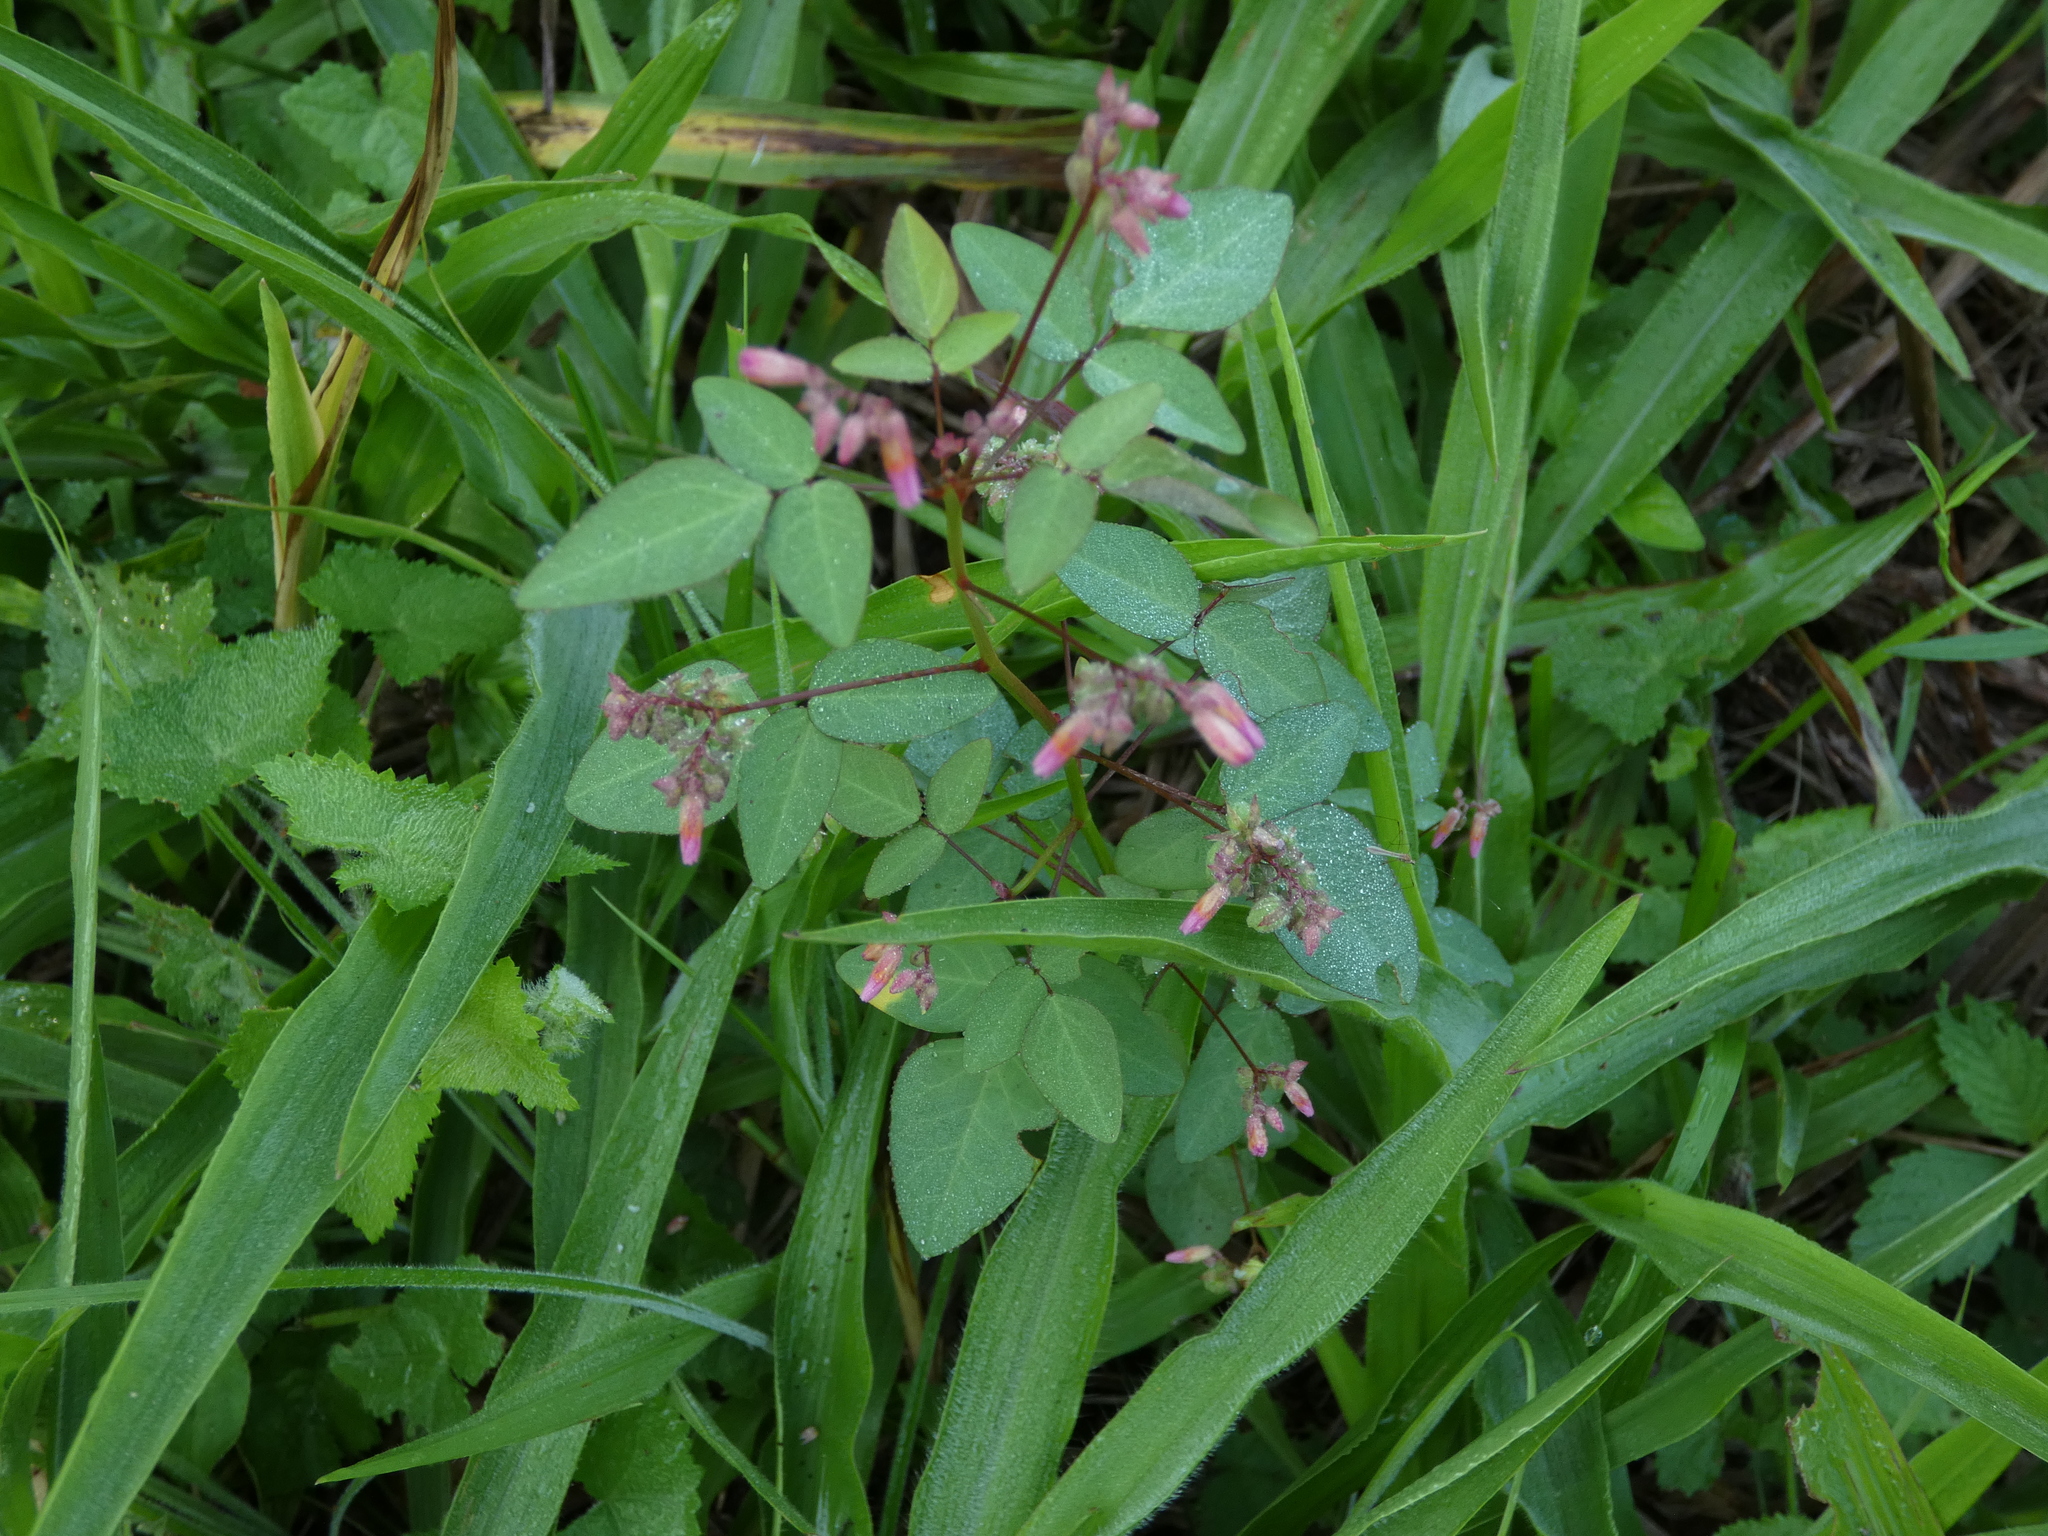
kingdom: Plantae
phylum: Tracheophyta
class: Magnoliopsida
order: Oxalidales
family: Oxalidaceae
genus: Oxalis
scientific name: Oxalis cratensis
